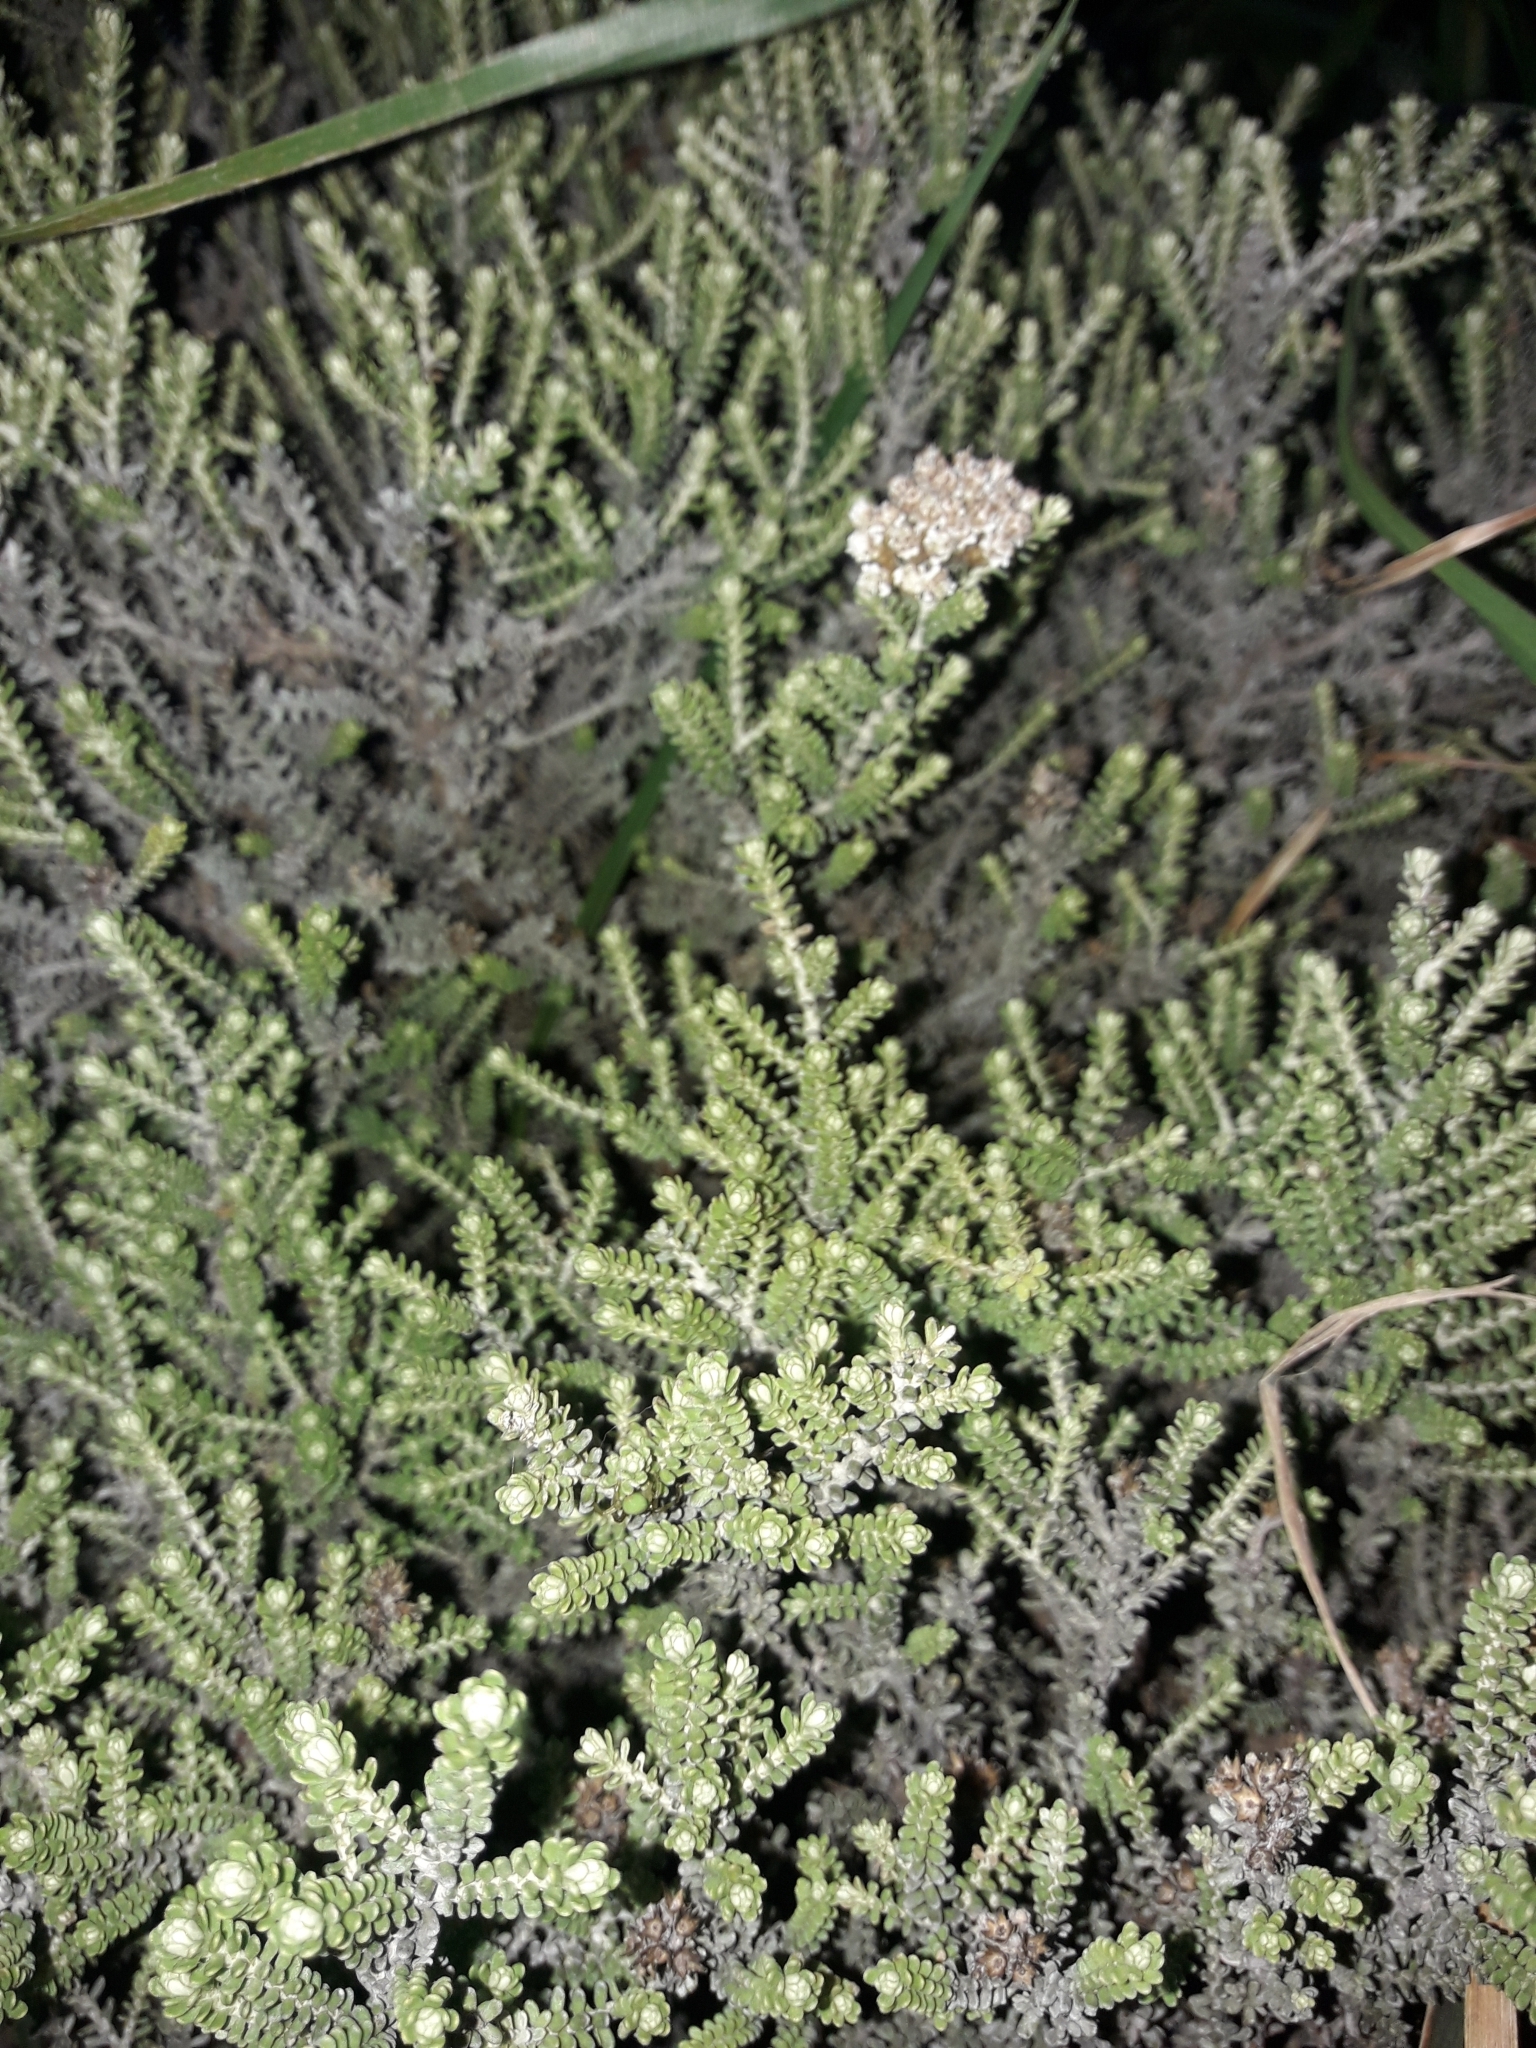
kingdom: Plantae
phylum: Tracheophyta
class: Magnoliopsida
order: Asterales
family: Asteraceae
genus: Ozothamnus
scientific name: Ozothamnus leptophyllus
